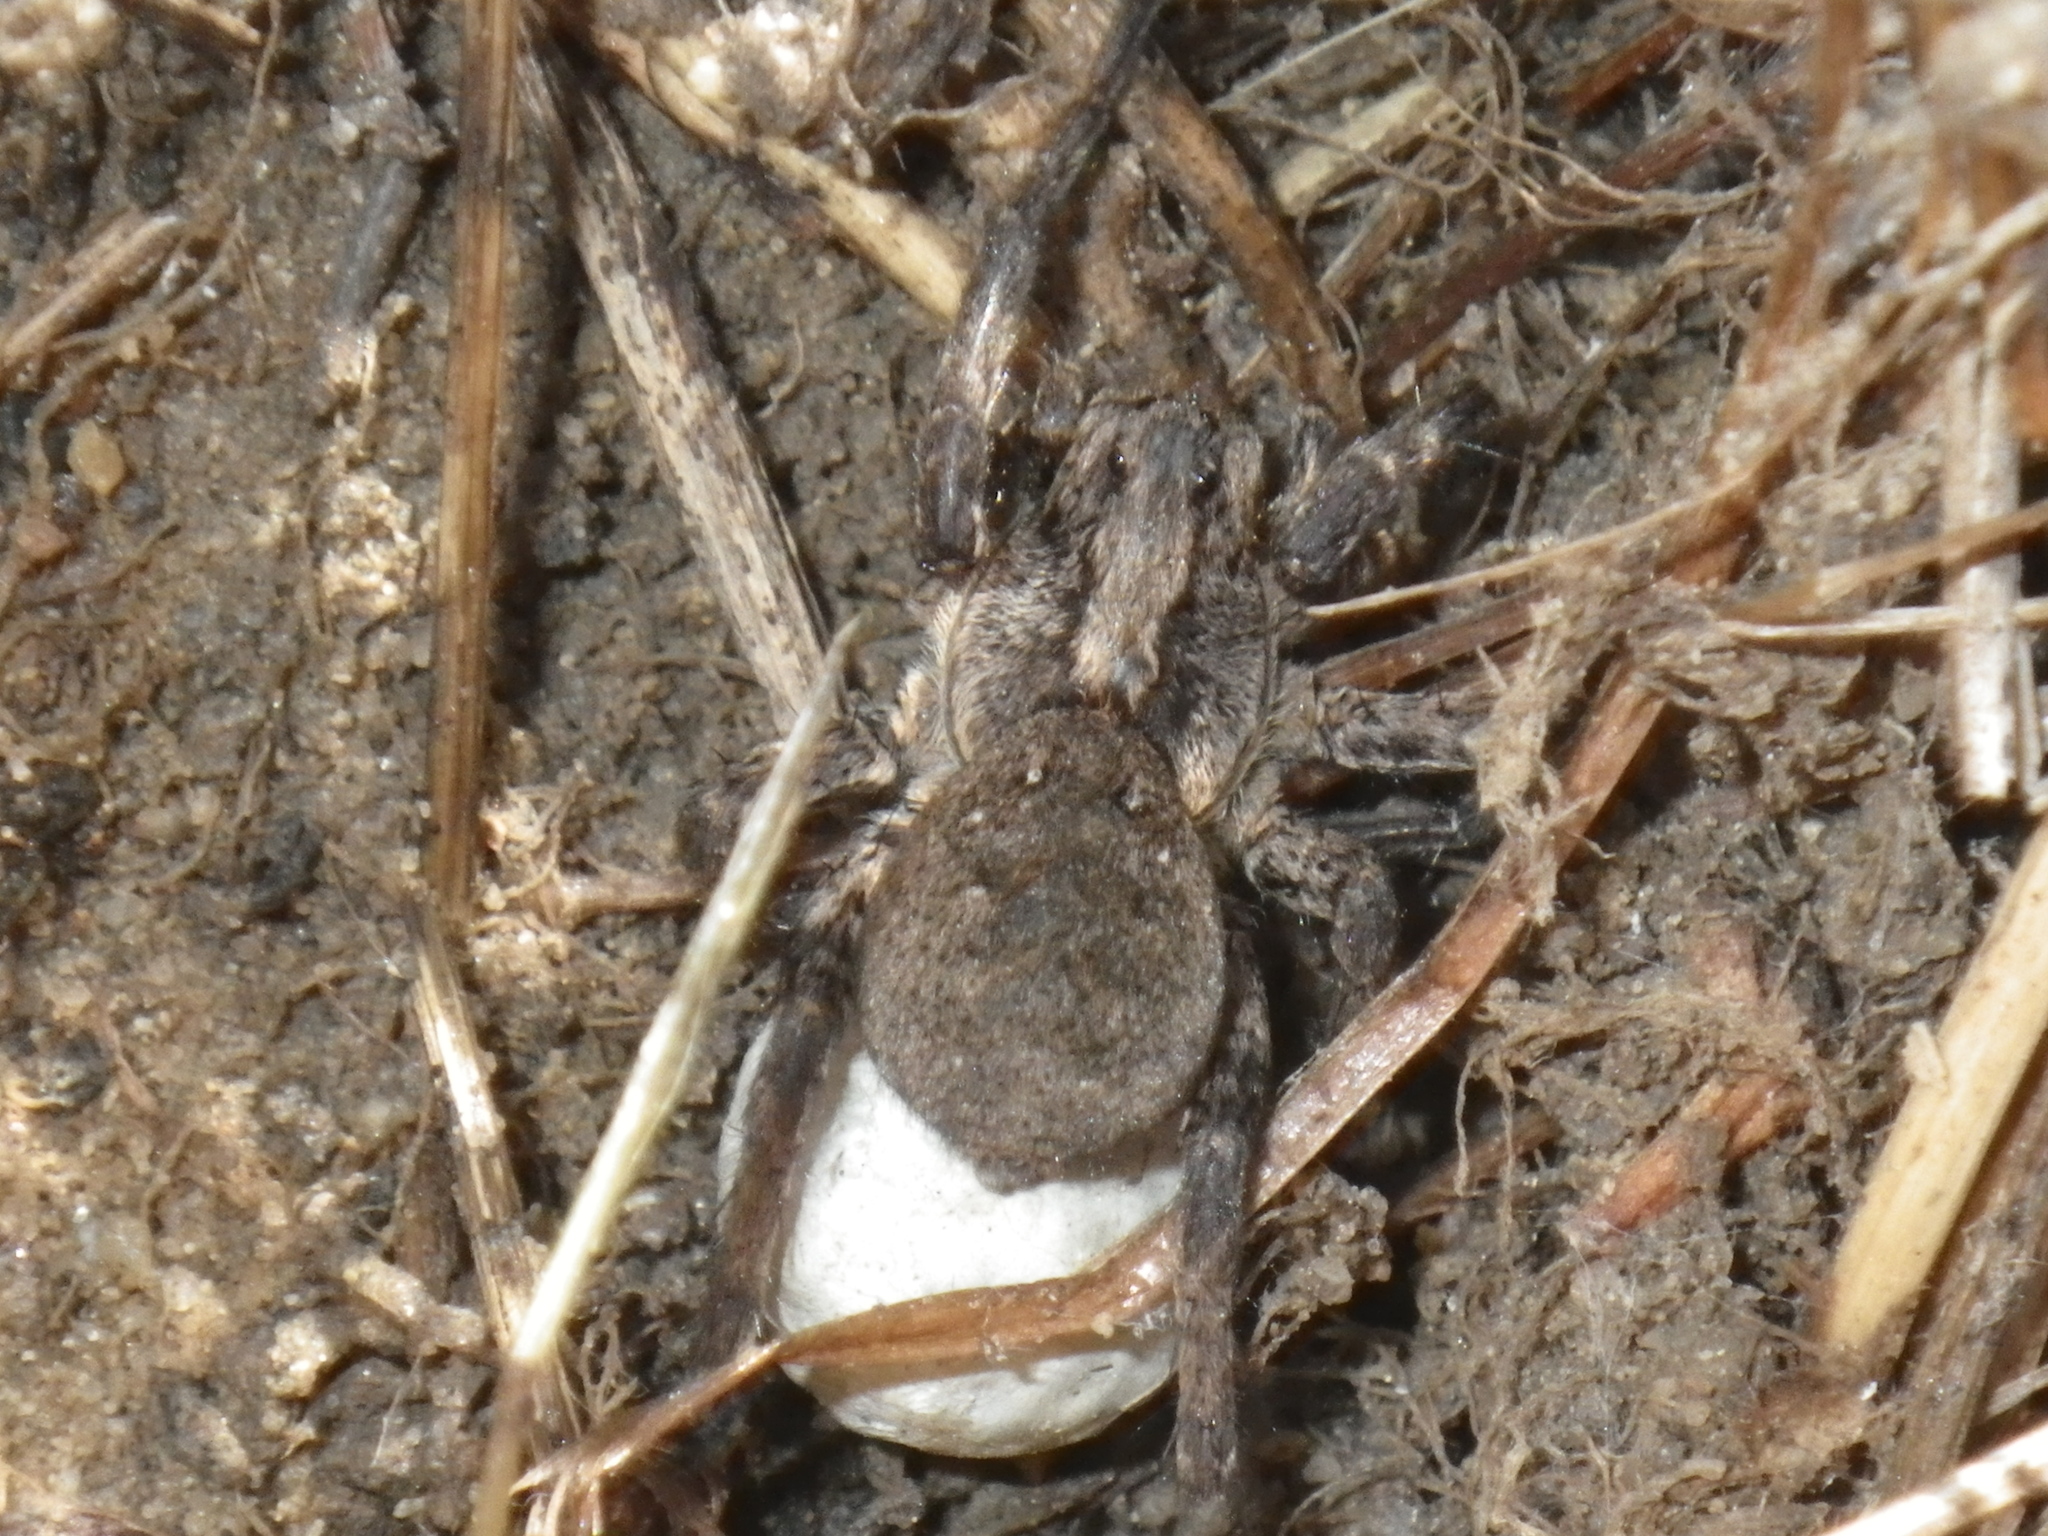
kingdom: Animalia
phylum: Arthropoda
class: Arachnida
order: Araneae
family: Lycosidae
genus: Alopecosa
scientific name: Alopecosa kochi
